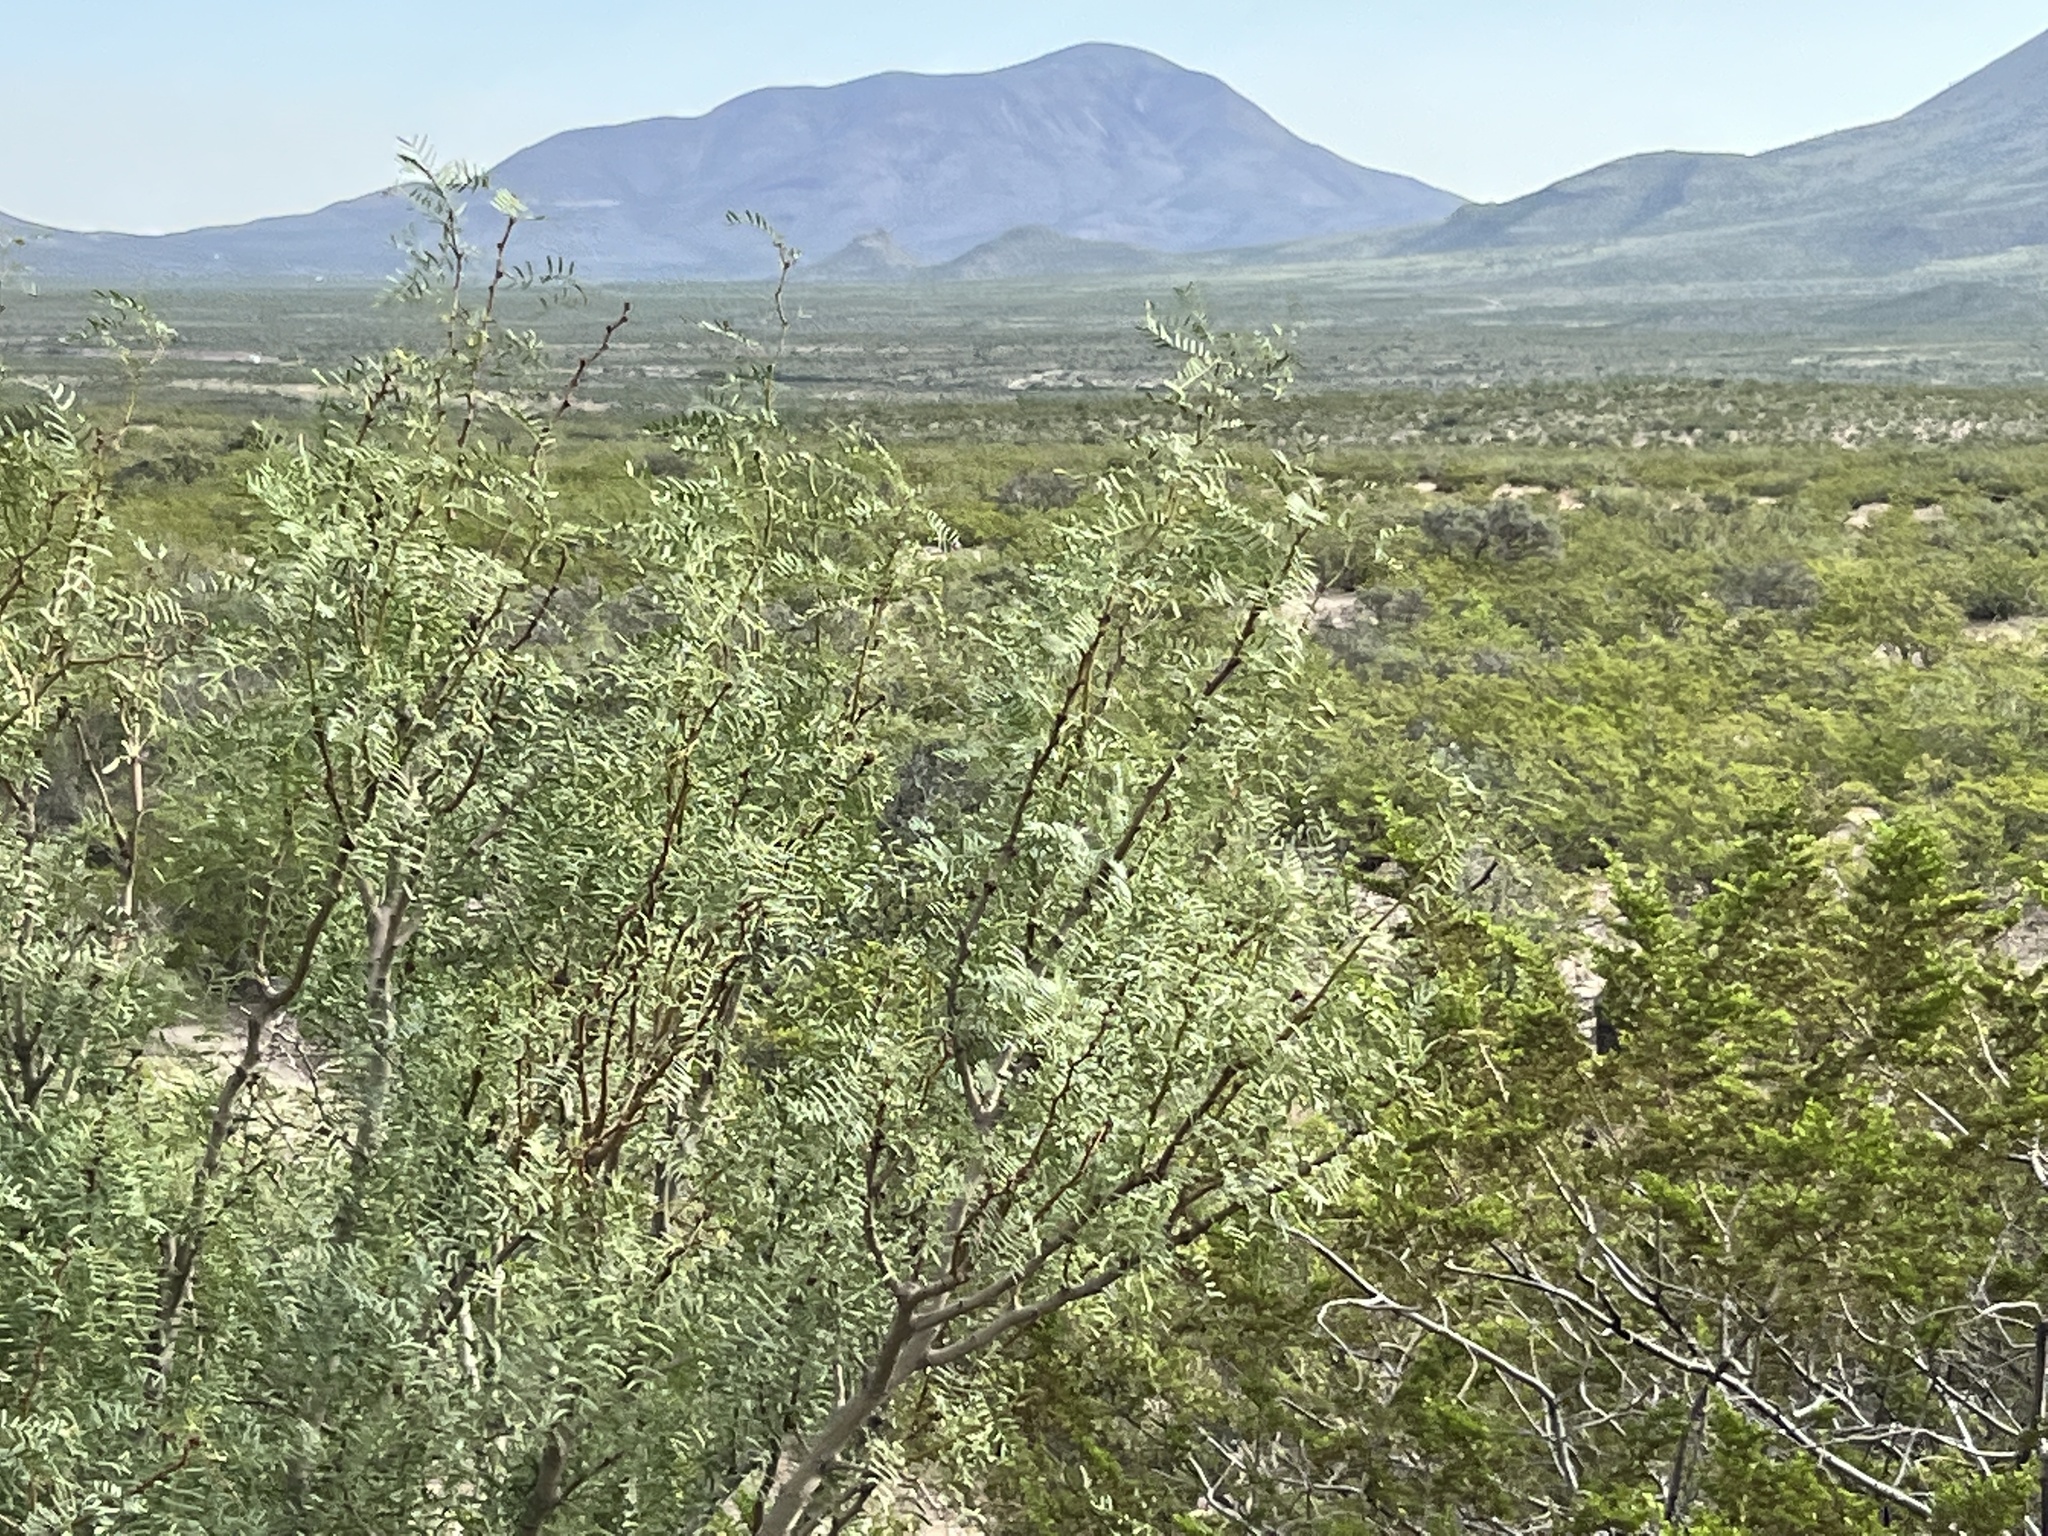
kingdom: Plantae
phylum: Tracheophyta
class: Magnoliopsida
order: Fabales
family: Fabaceae
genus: Prosopis
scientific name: Prosopis glandulosa
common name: Honey mesquite
